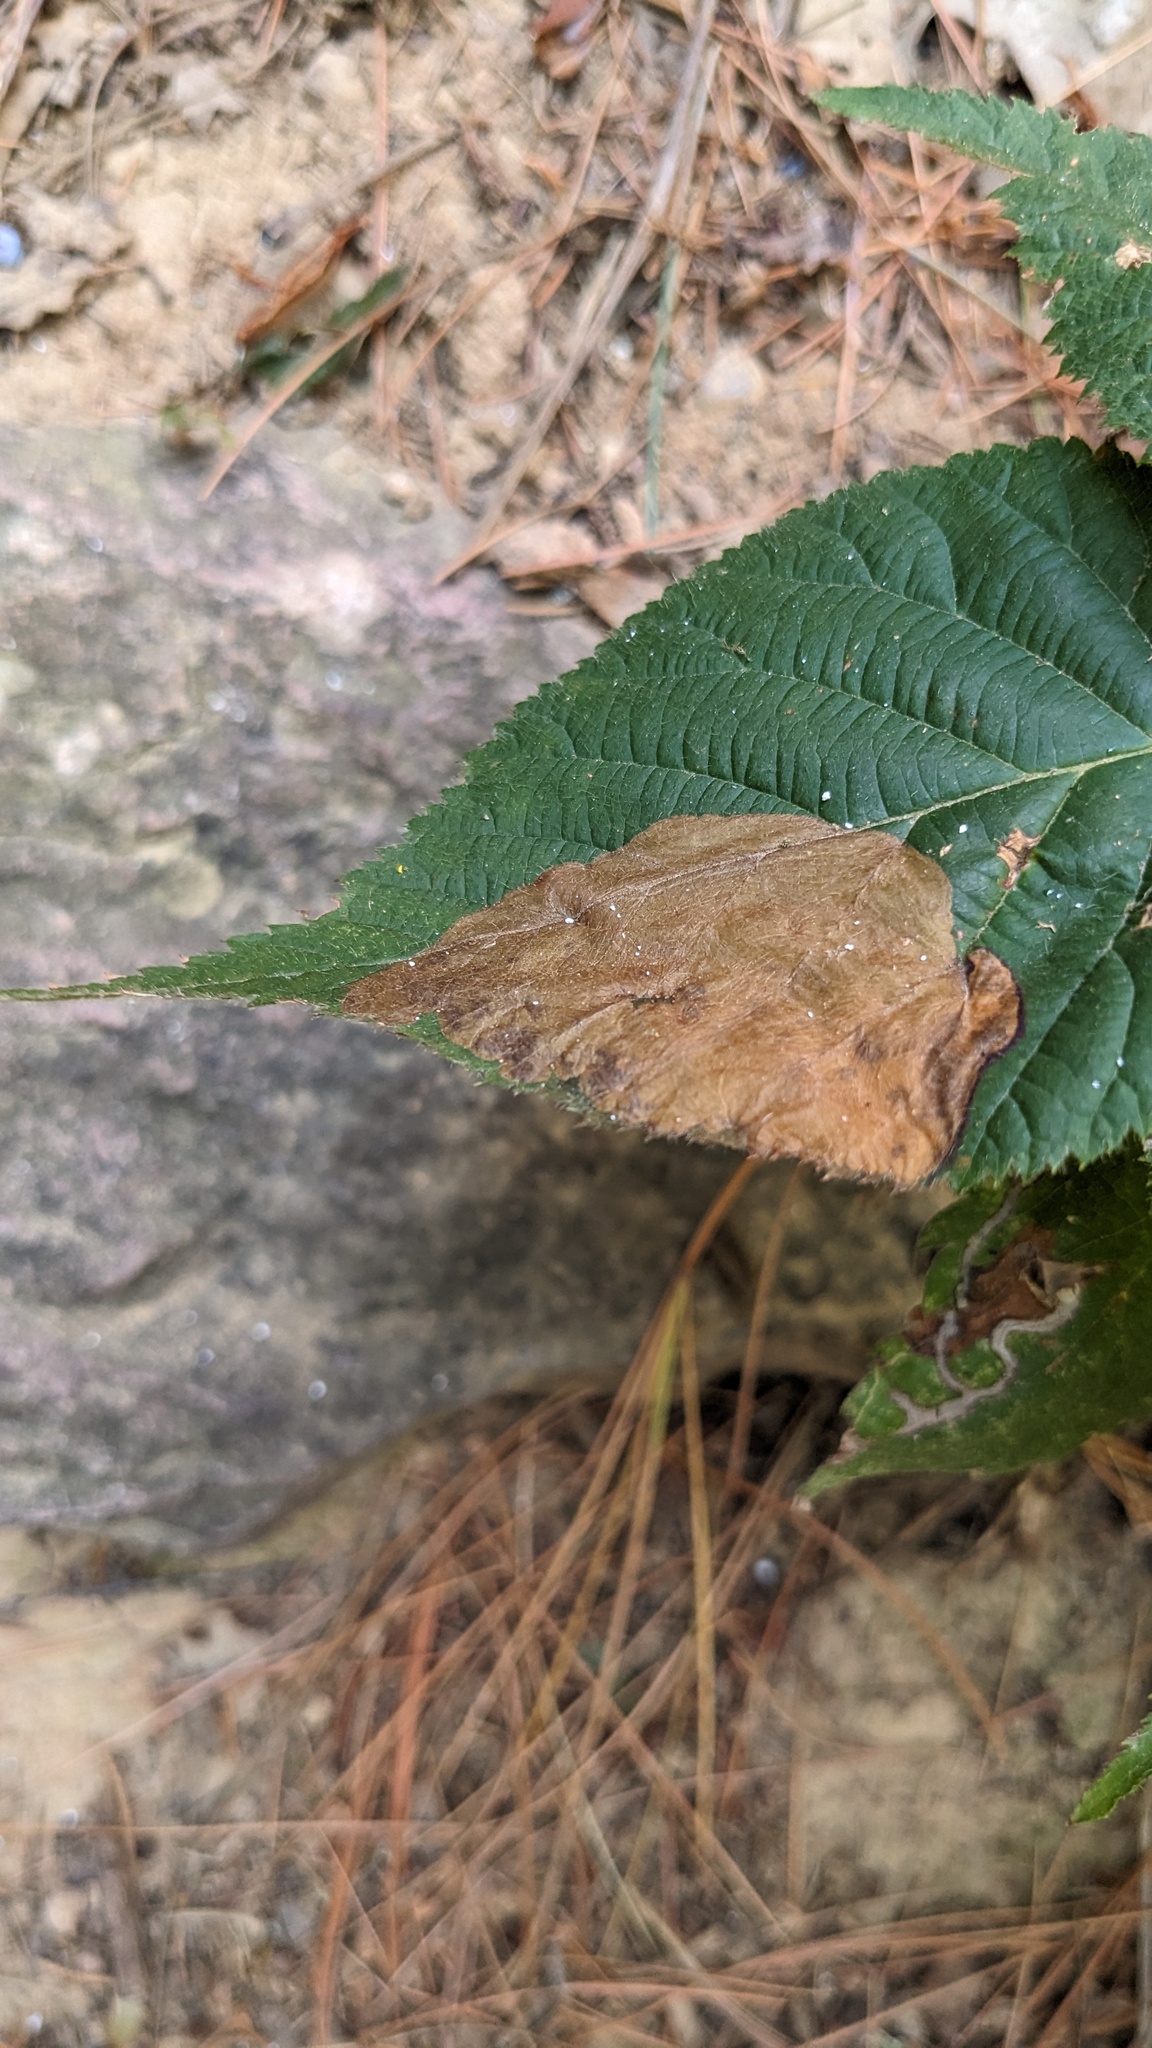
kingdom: Animalia
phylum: Arthropoda
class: Insecta
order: Hymenoptera
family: Tenthredinidae
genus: Metallus
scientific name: Metallus rohweri
